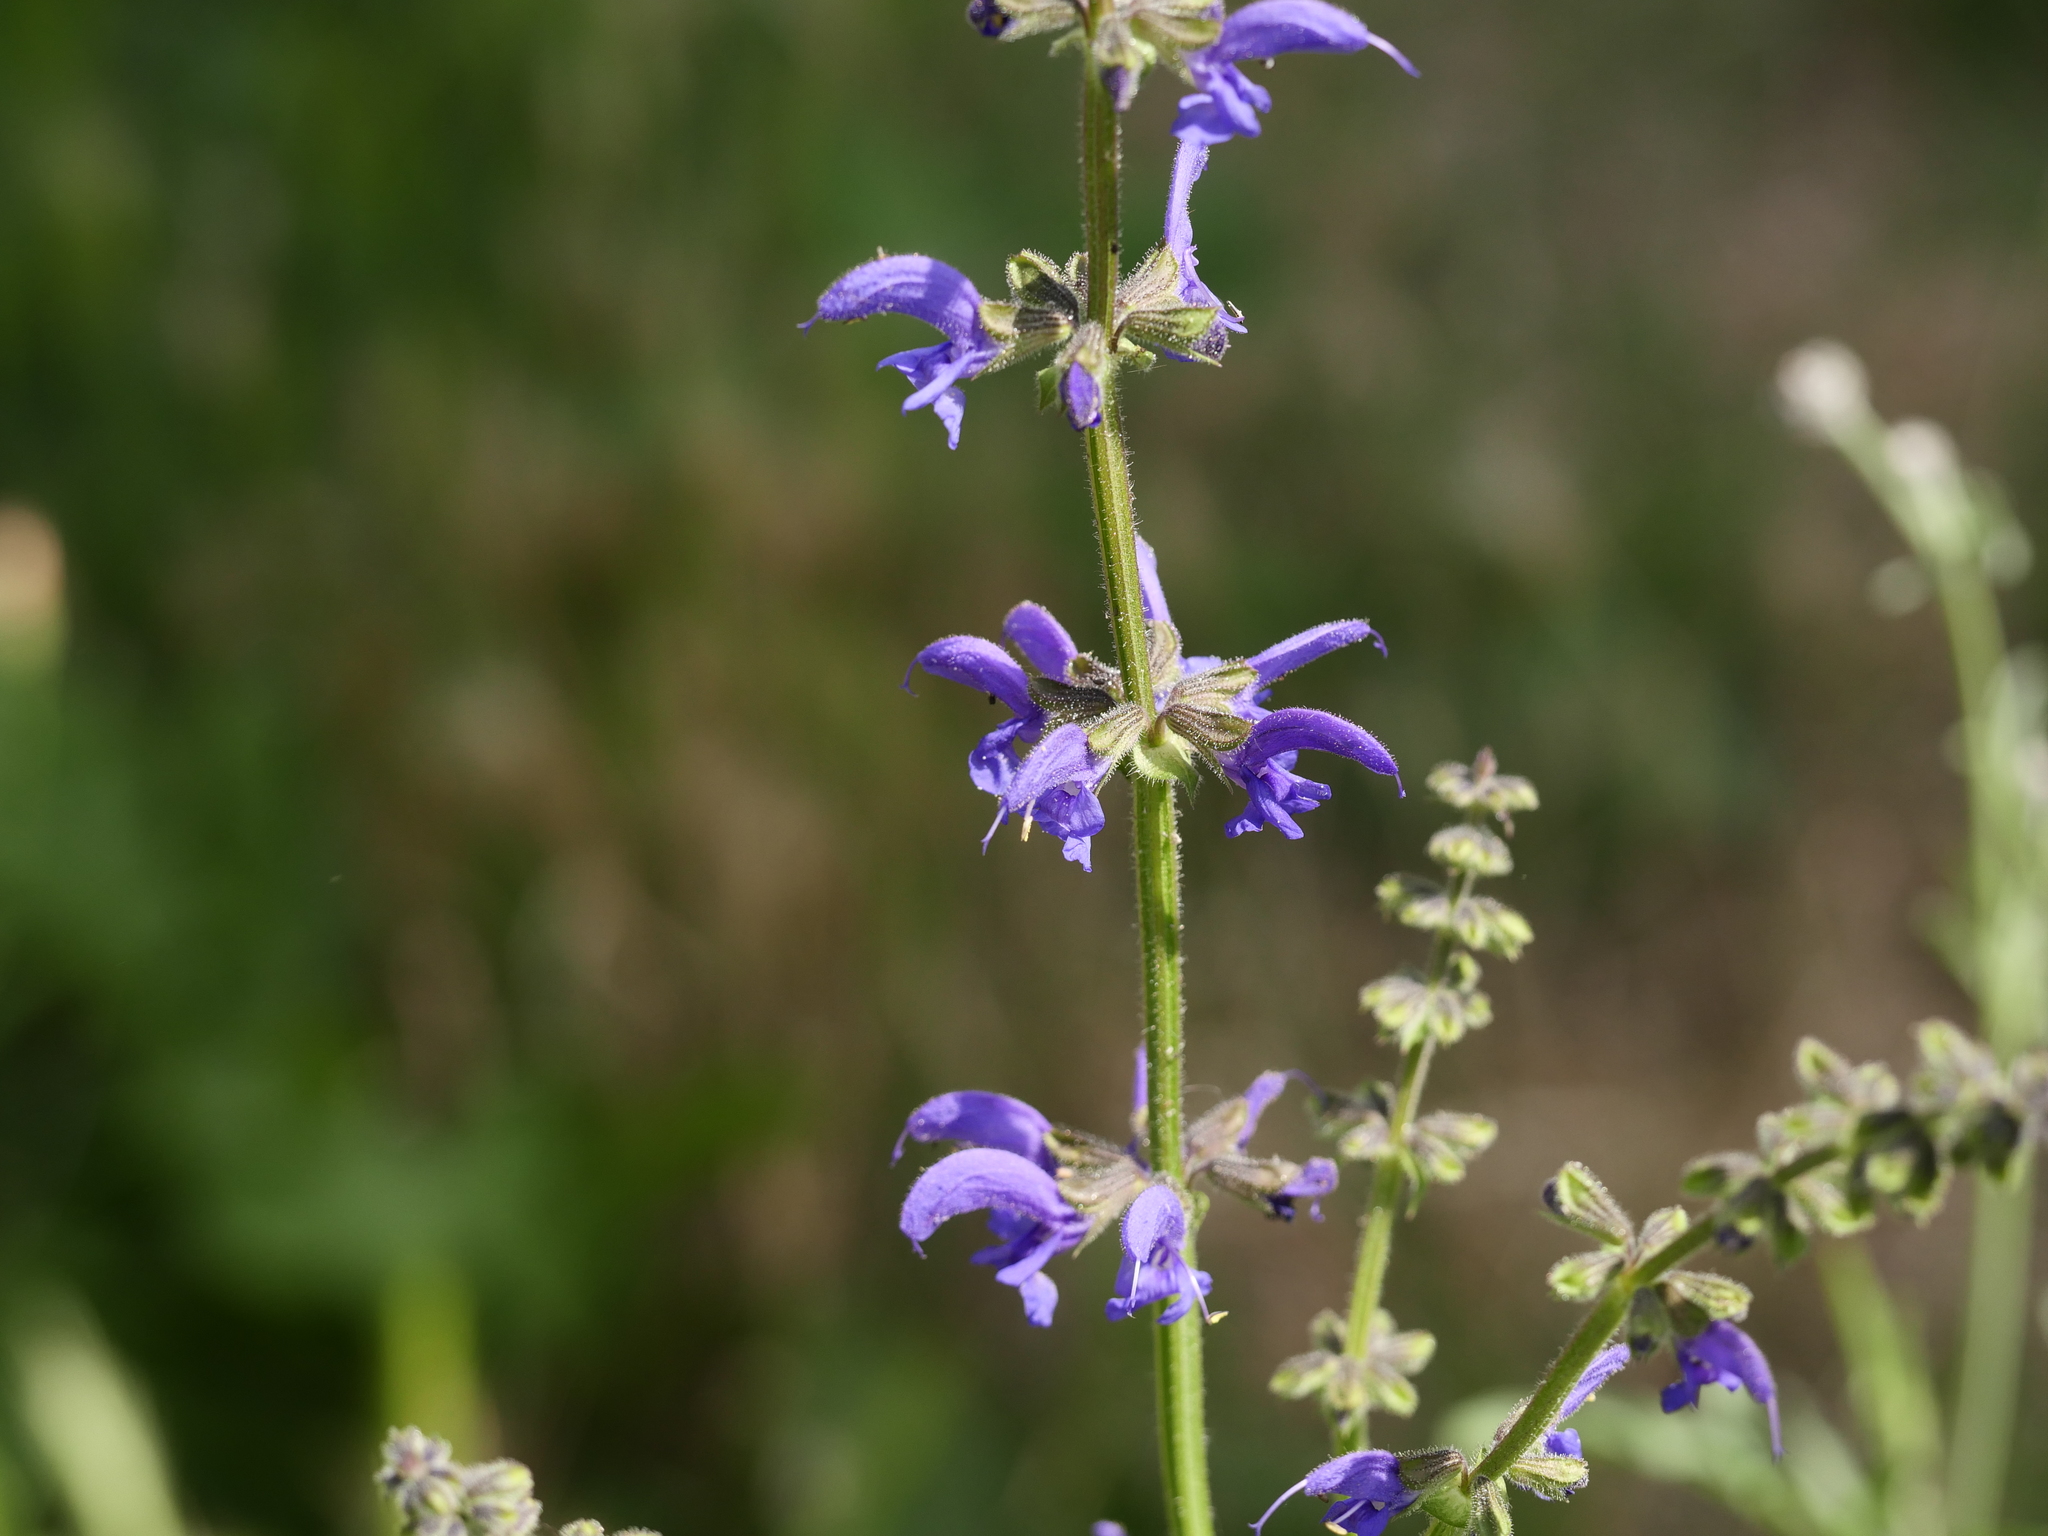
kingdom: Plantae
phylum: Tracheophyta
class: Magnoliopsida
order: Lamiales
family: Lamiaceae
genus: Salvia
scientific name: Salvia pratensis
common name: Meadow sage
